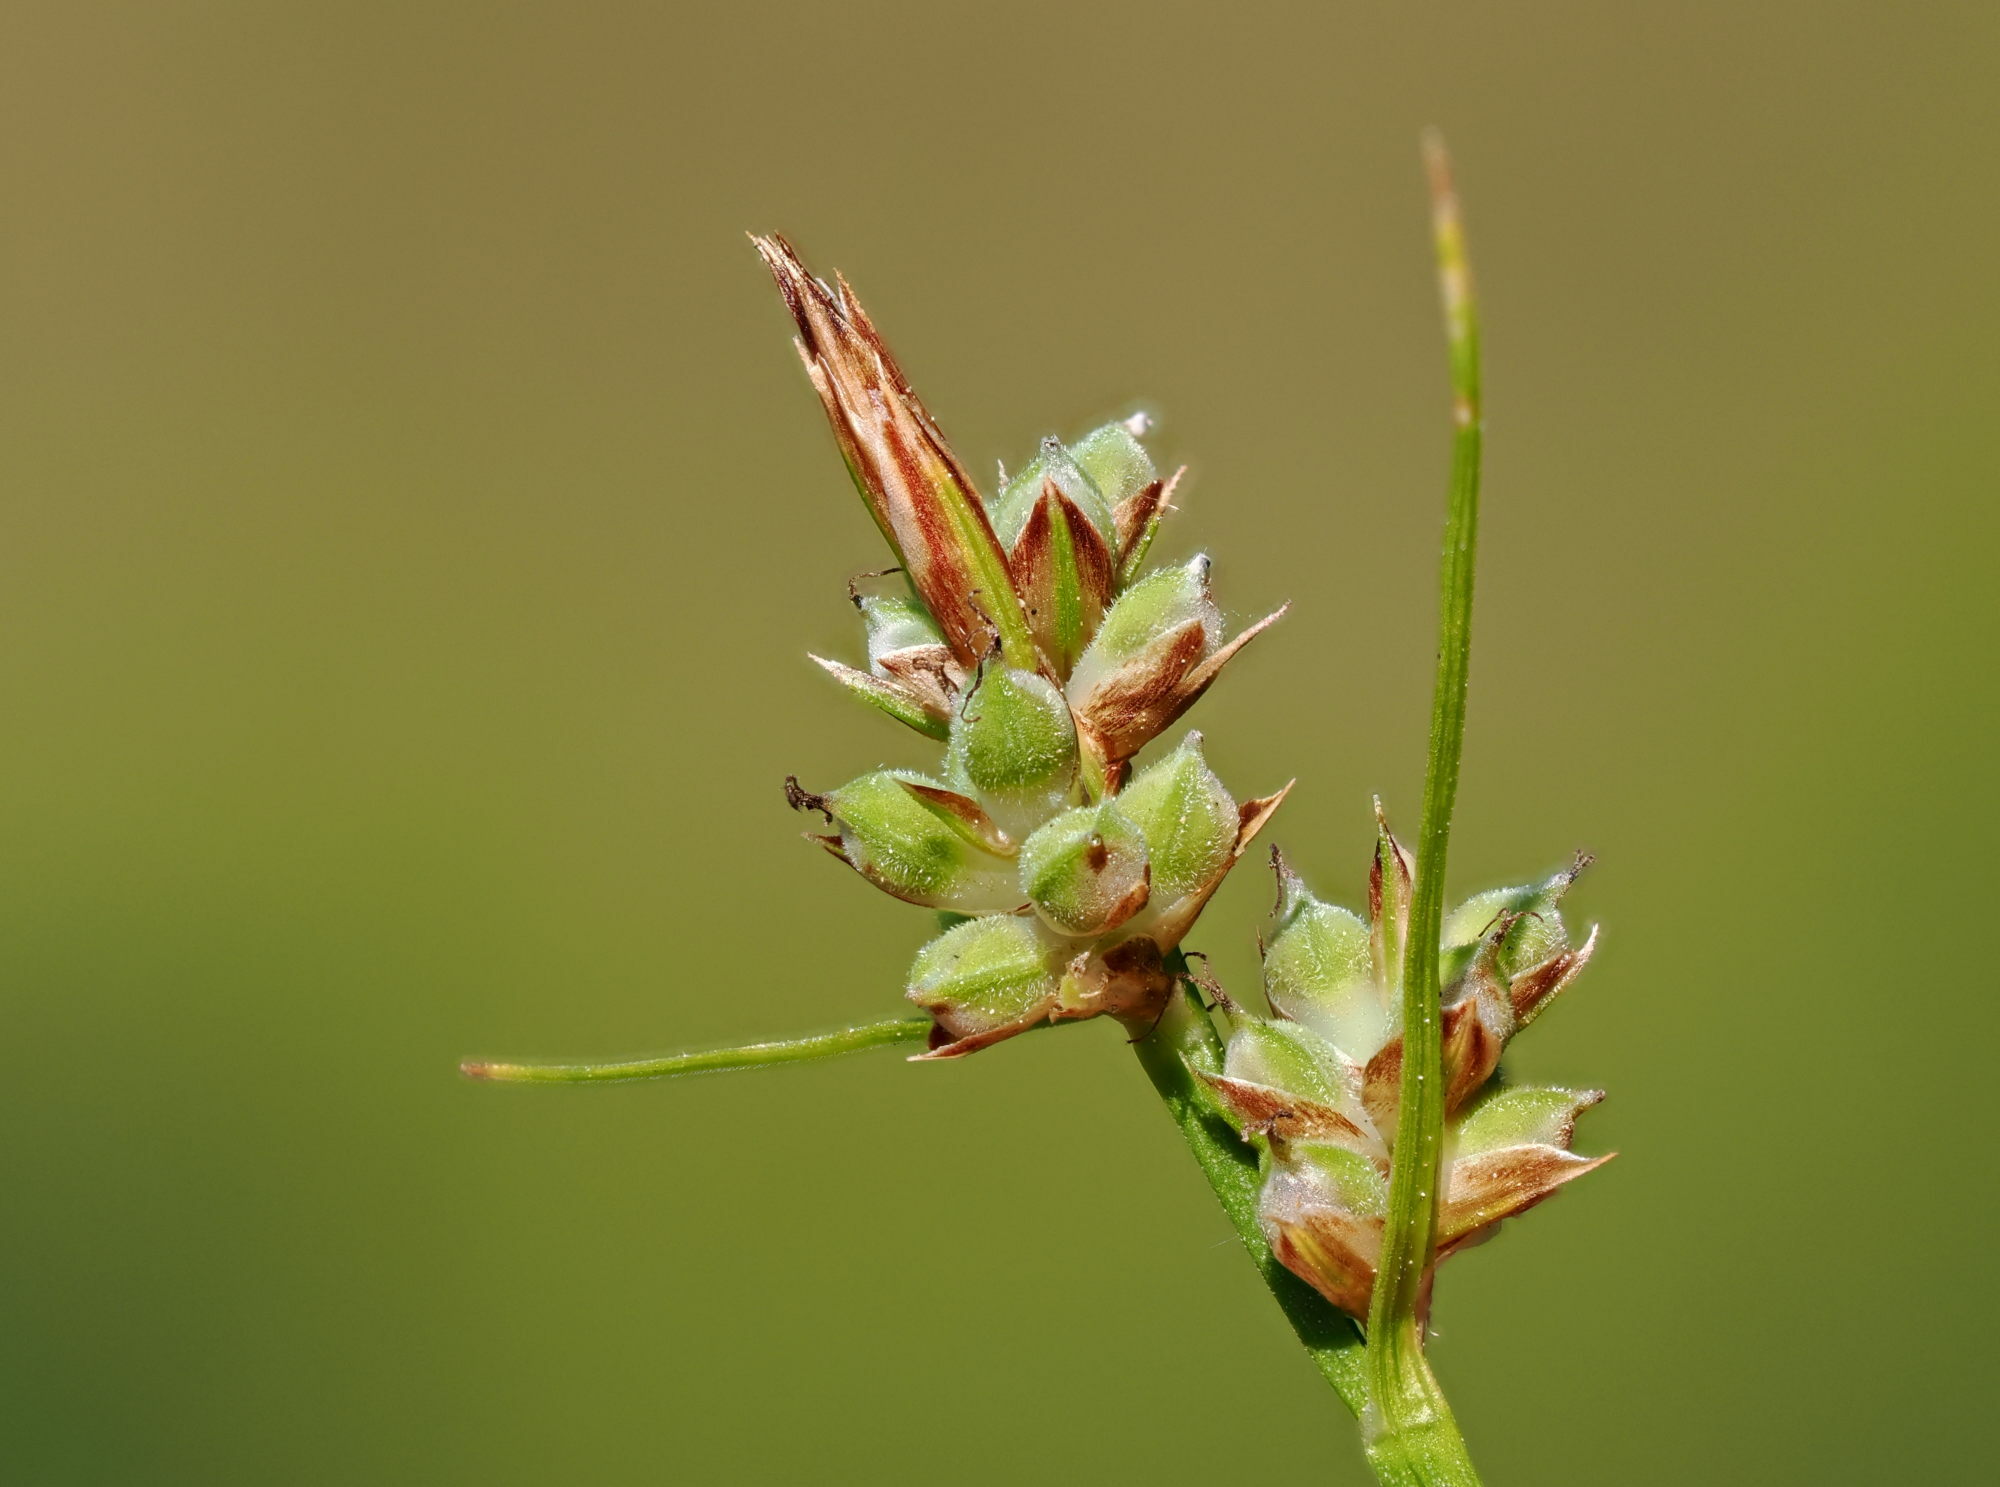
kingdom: Plantae
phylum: Tracheophyta
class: Liliopsida
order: Poales
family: Cyperaceae
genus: Carex
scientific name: Carex pilulifera
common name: Pill sedge
